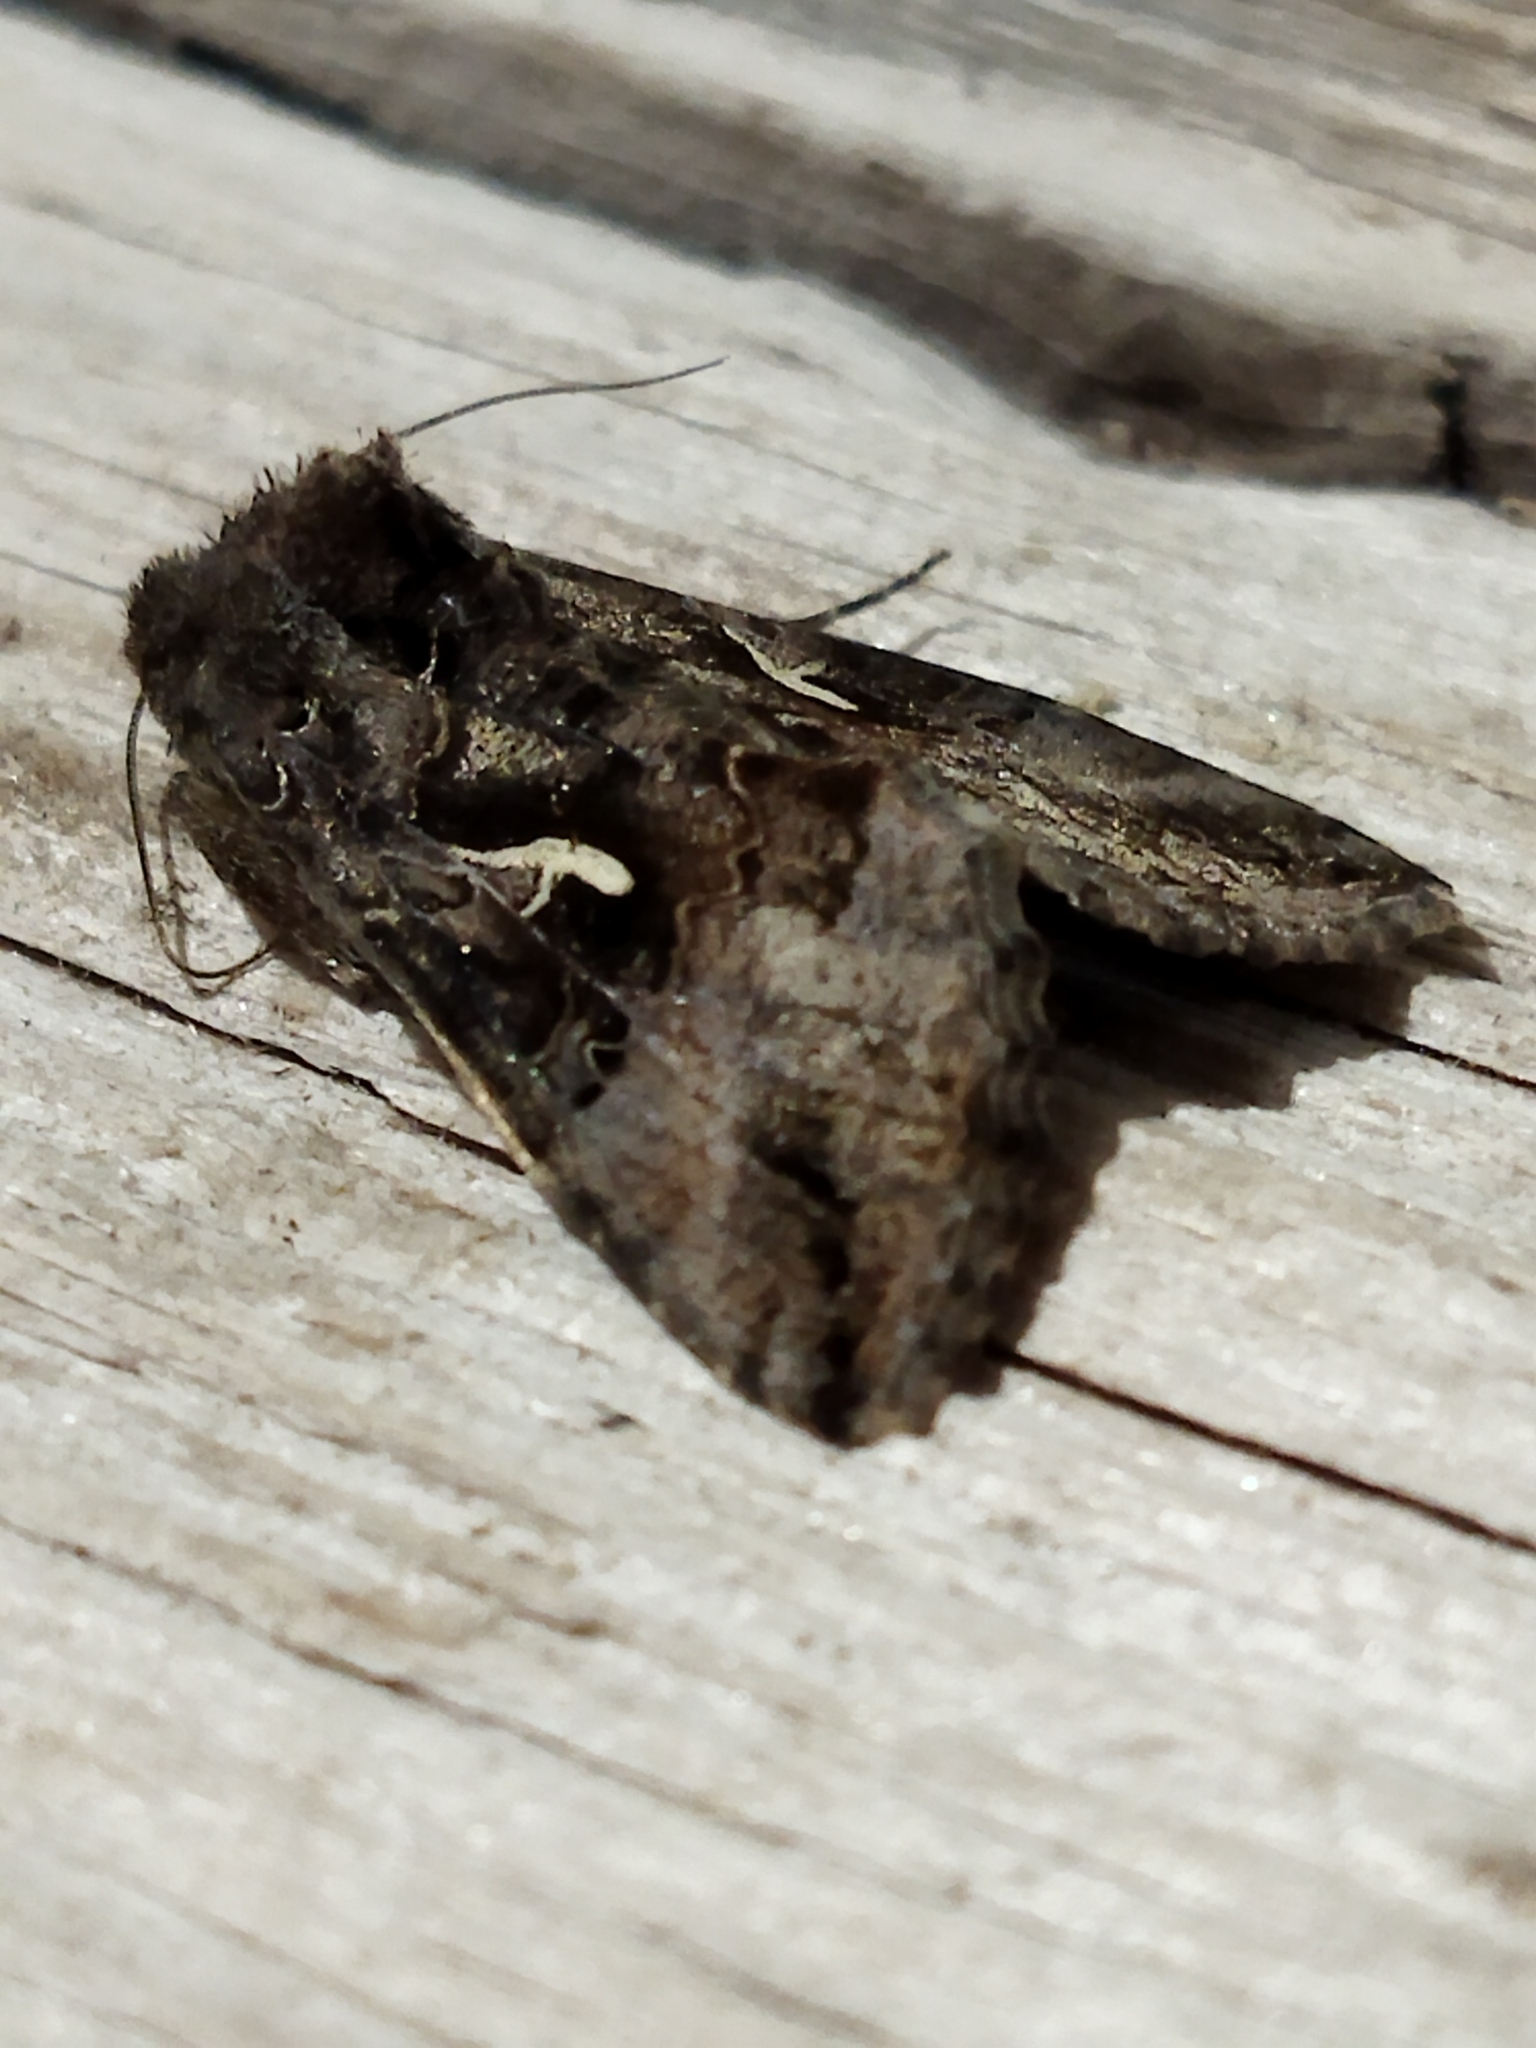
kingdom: Animalia
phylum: Arthropoda
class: Insecta
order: Lepidoptera
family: Noctuidae
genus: Autographa
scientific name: Autographa gamma
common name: Silver y
